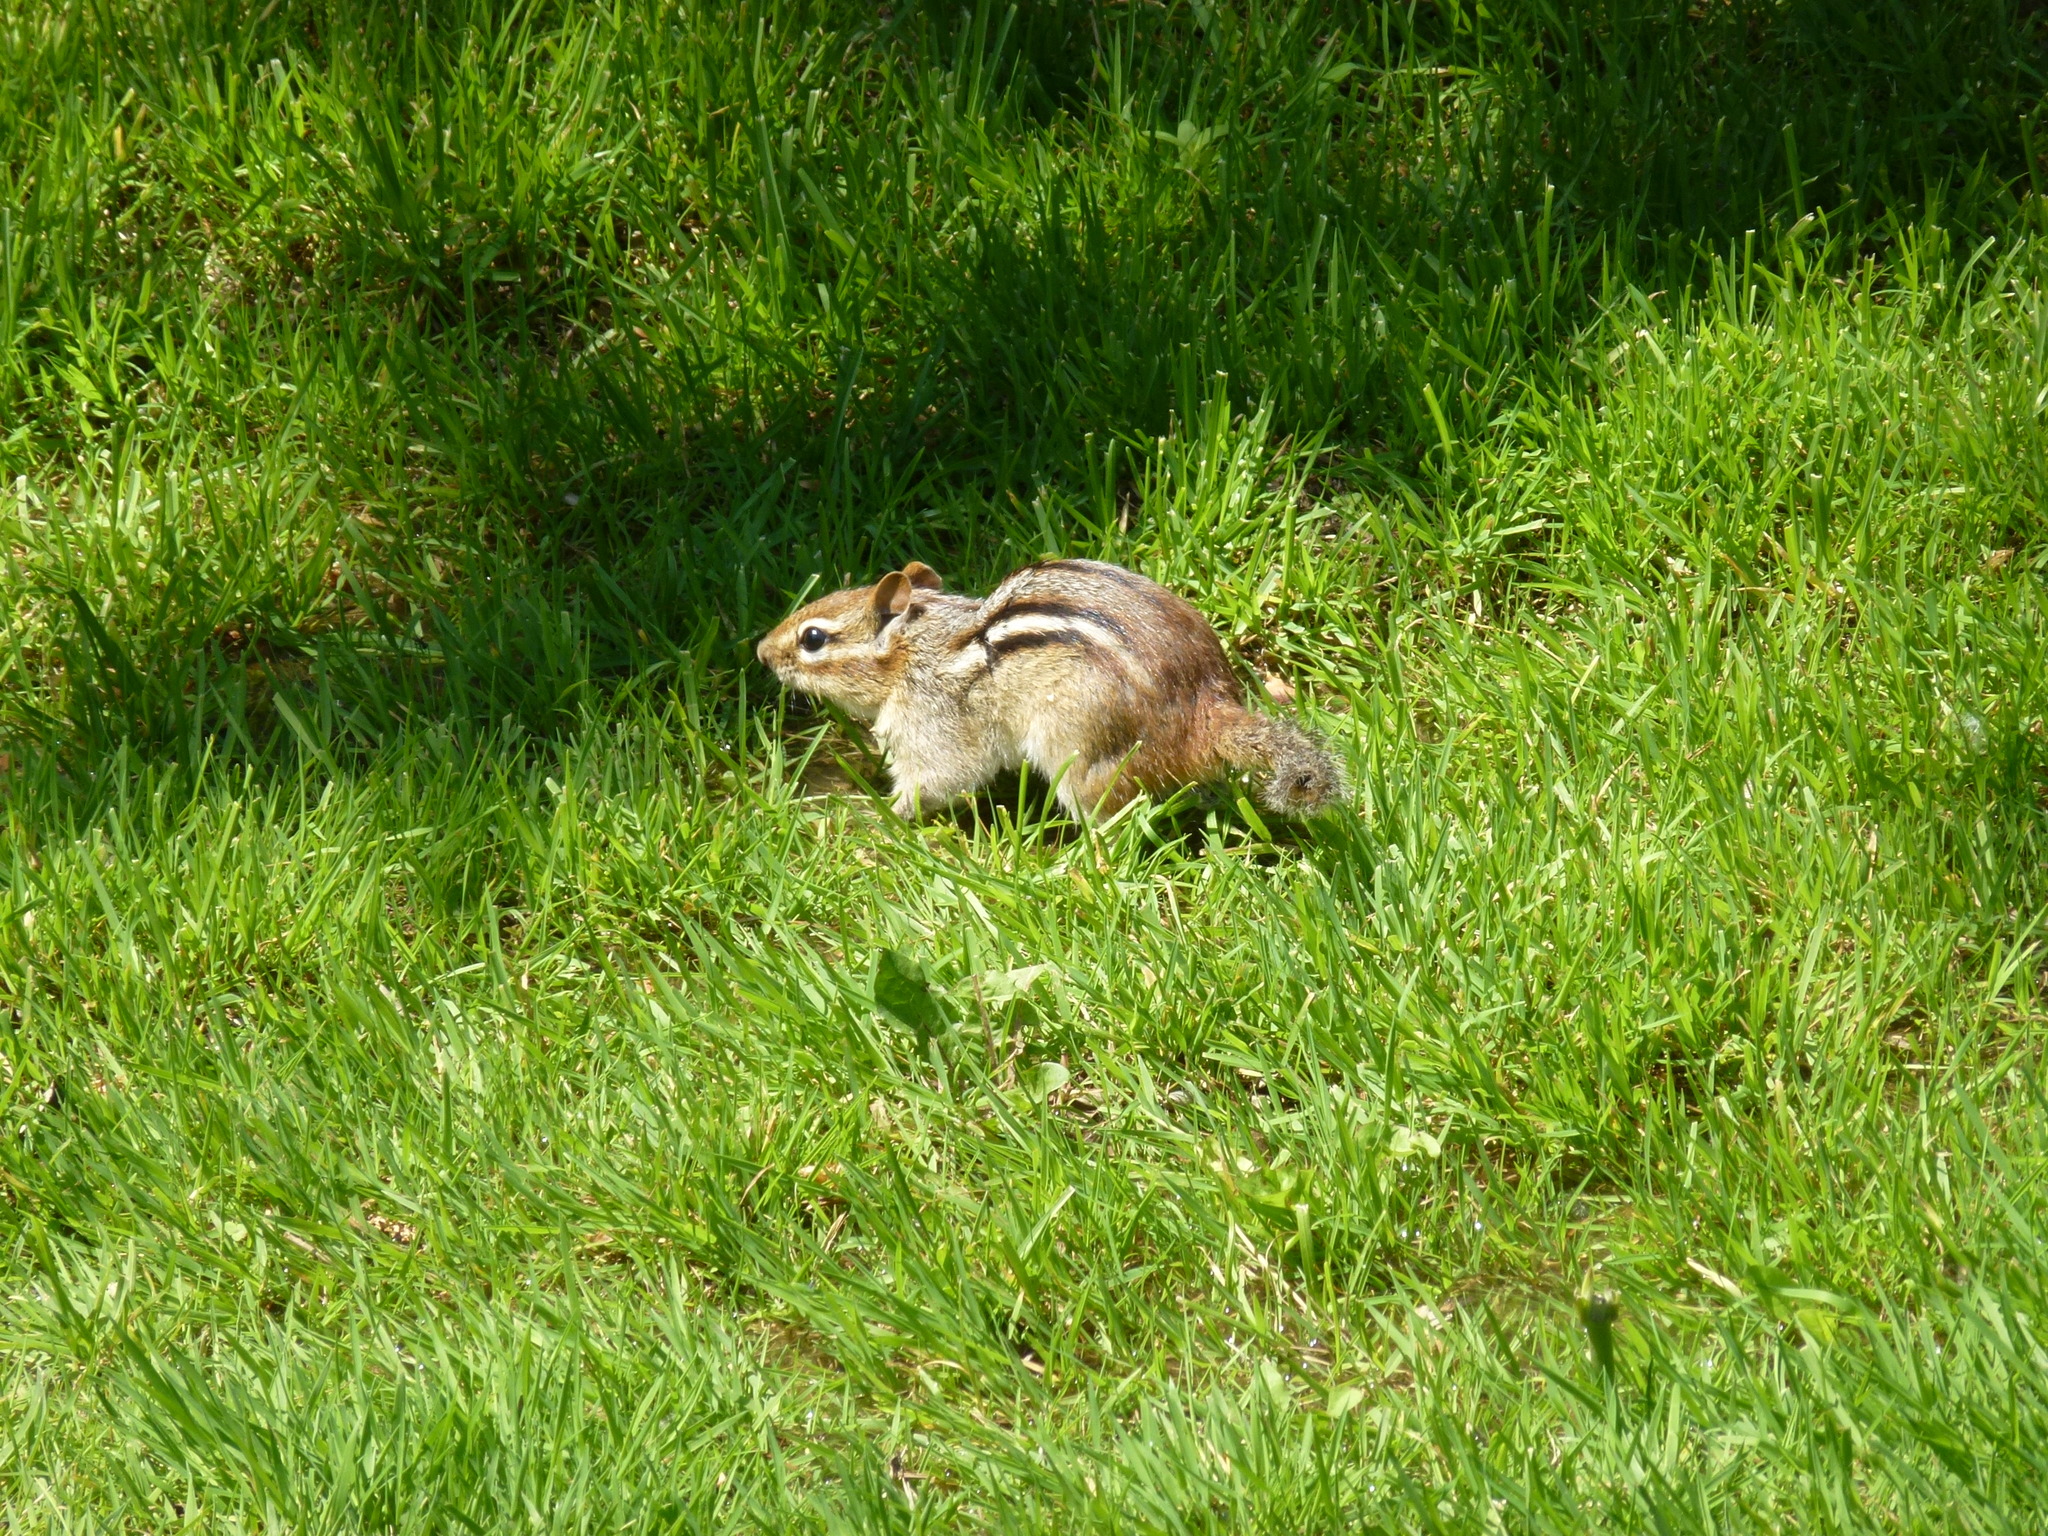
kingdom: Animalia
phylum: Chordata
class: Mammalia
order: Rodentia
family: Sciuridae
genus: Tamias
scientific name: Tamias striatus
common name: Eastern chipmunk
